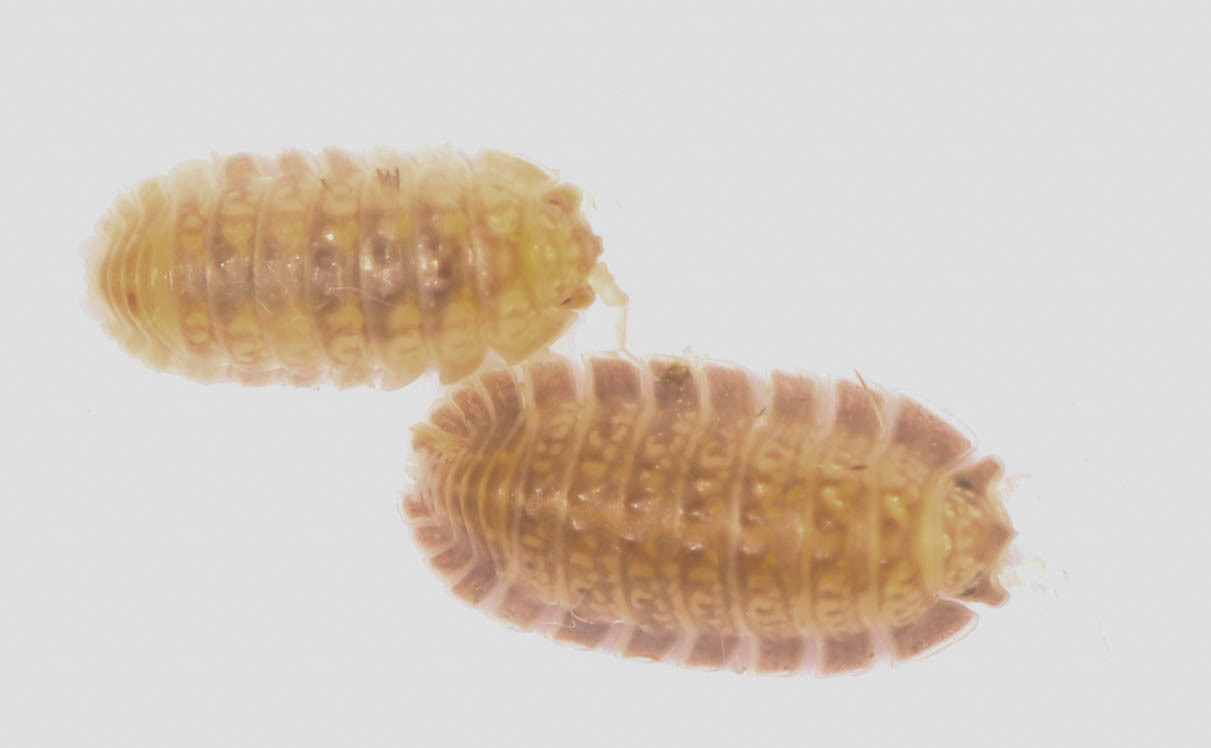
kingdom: Animalia
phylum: Arthropoda
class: Malacostraca
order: Isopoda
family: Detonidae
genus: Armadilloniscus
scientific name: Armadilloniscus lindahli
